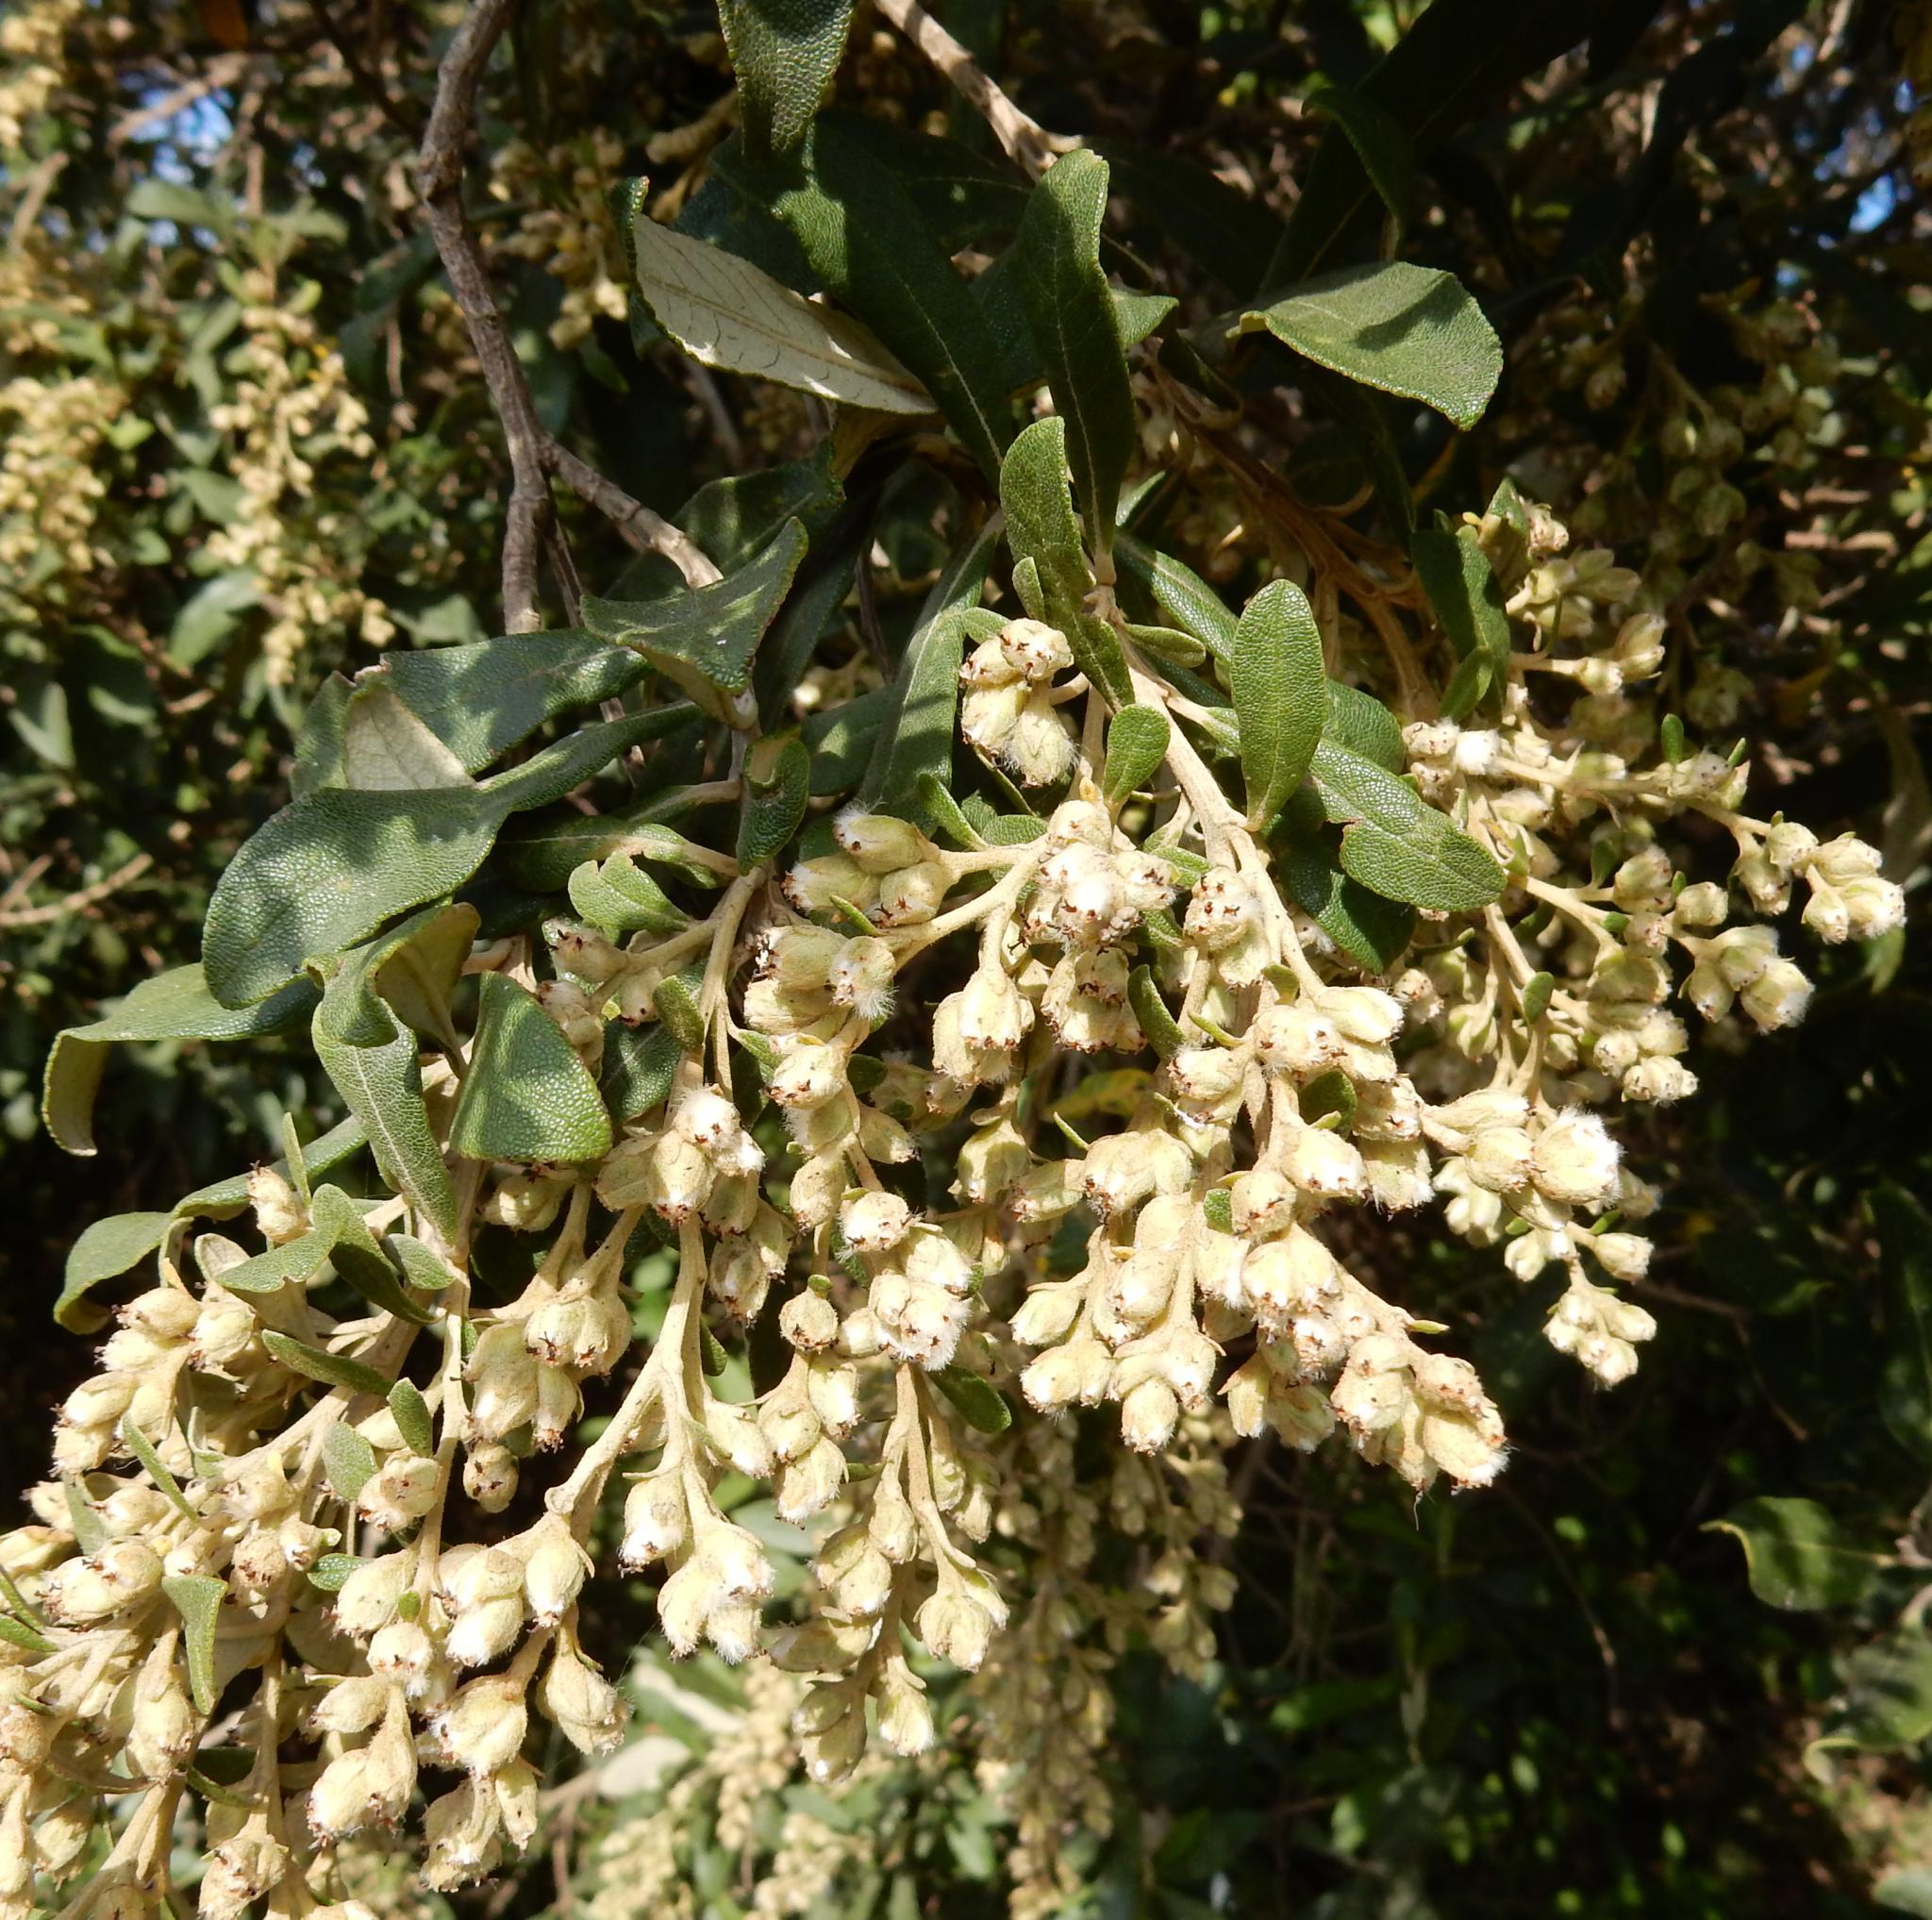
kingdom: Plantae
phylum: Tracheophyta
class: Magnoliopsida
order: Asterales
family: Asteraceae
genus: Tarchonanthus
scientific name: Tarchonanthus littoralis
